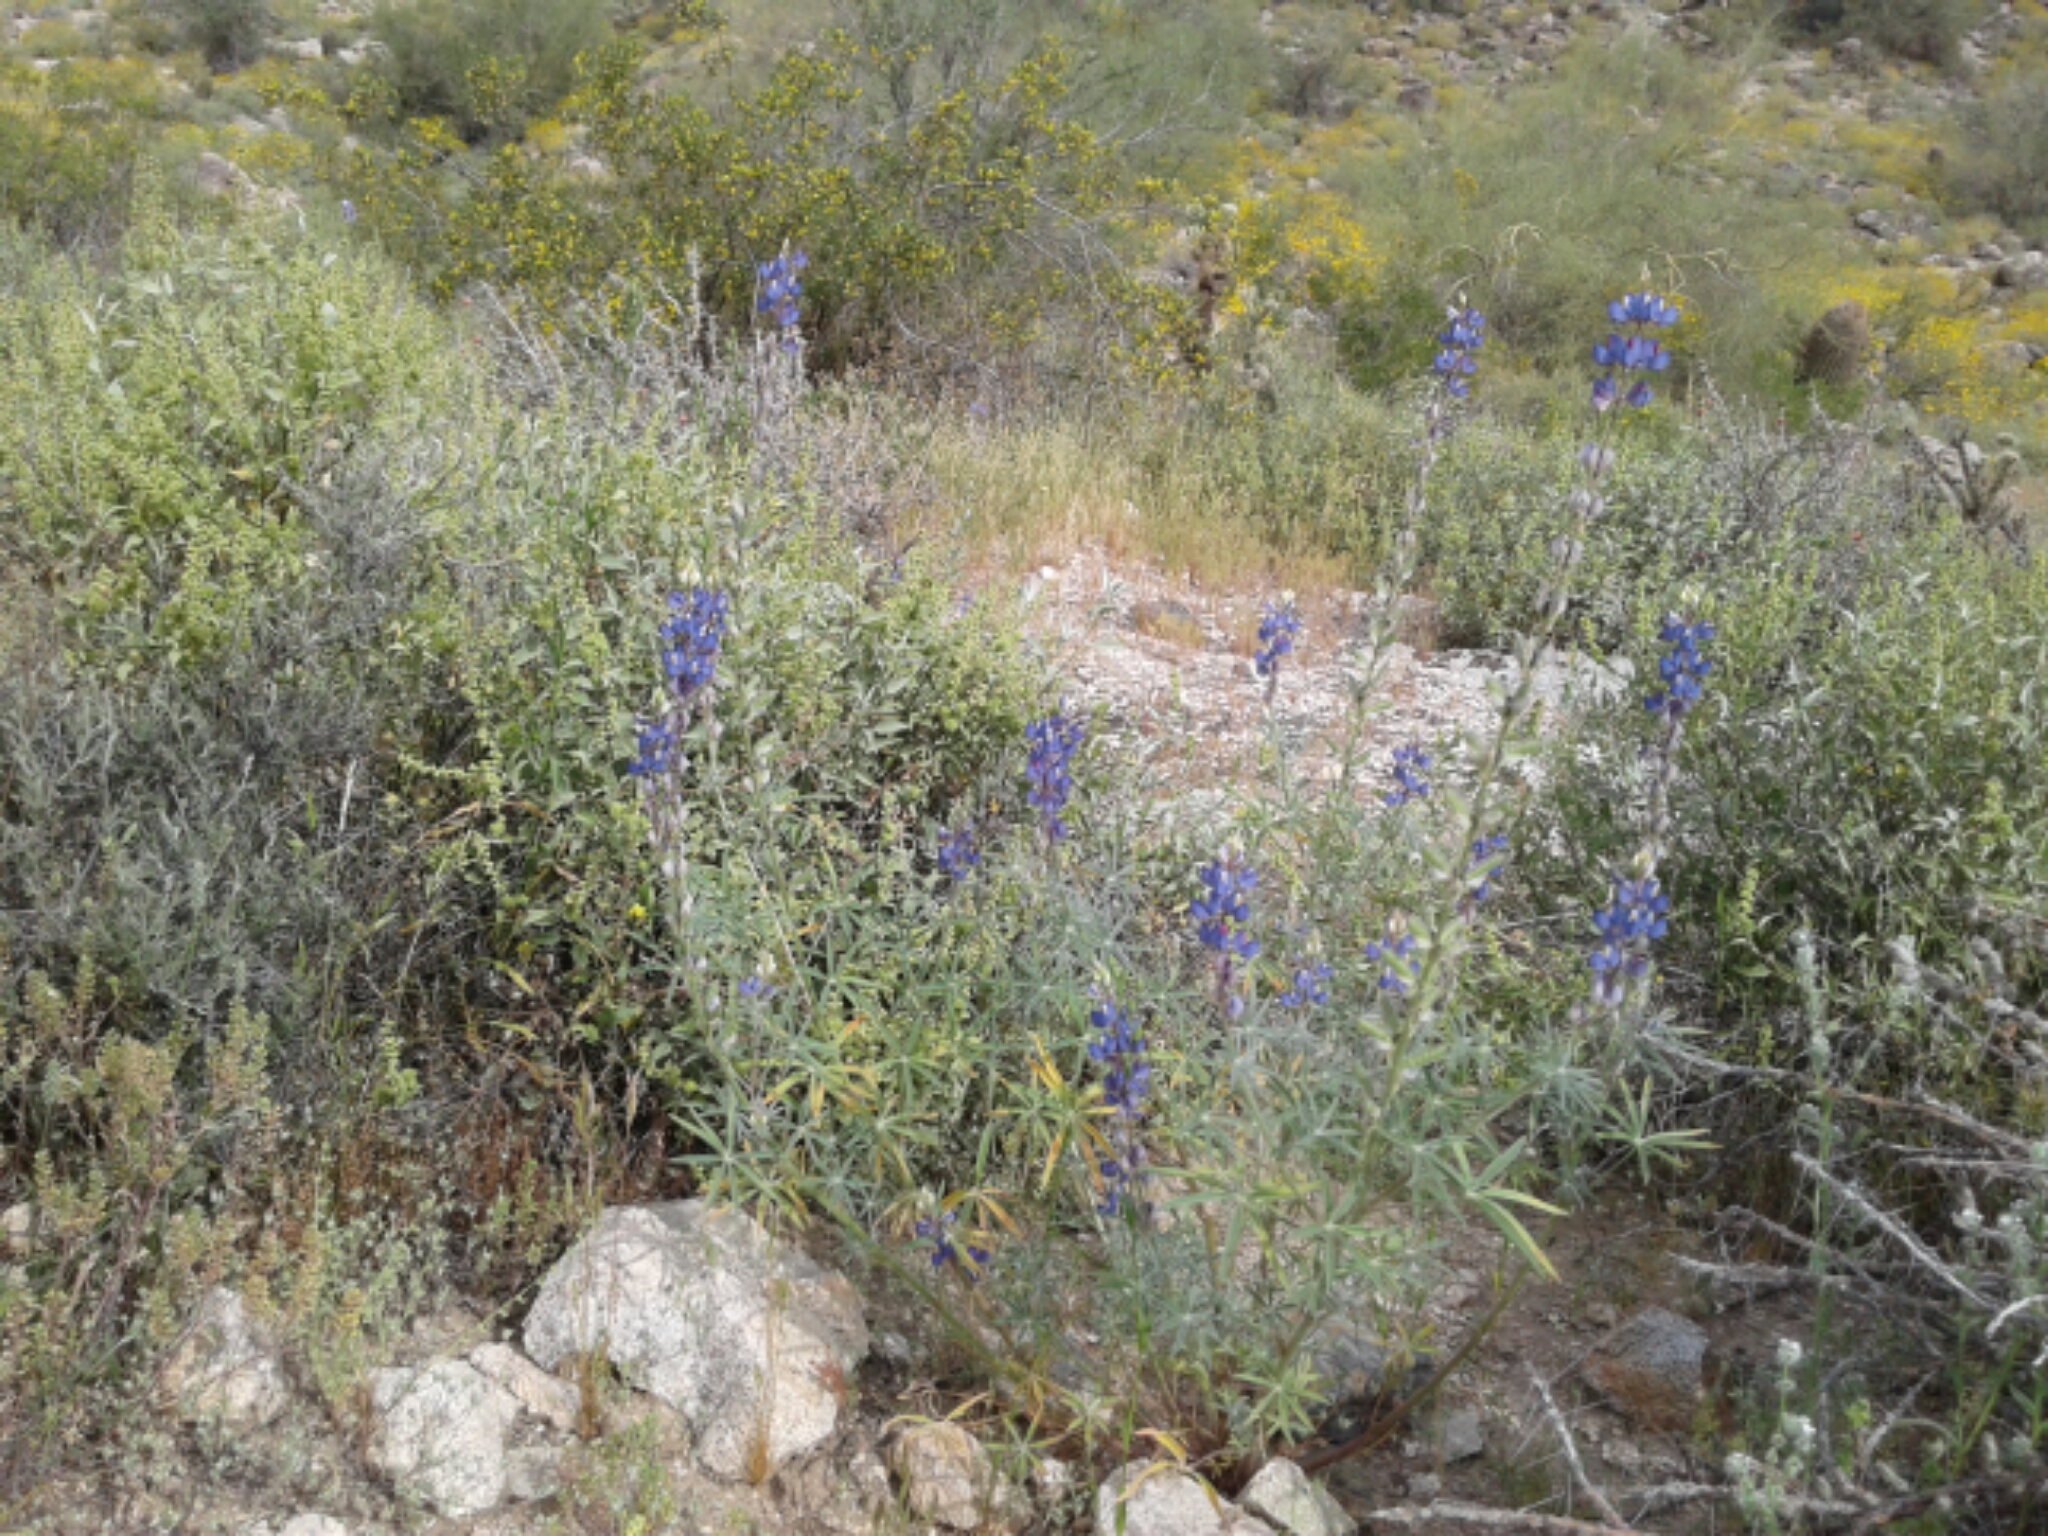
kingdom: Plantae
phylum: Tracheophyta
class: Magnoliopsida
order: Fabales
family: Fabaceae
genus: Lupinus
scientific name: Lupinus sparsiflorus
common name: Coulter's lupine
